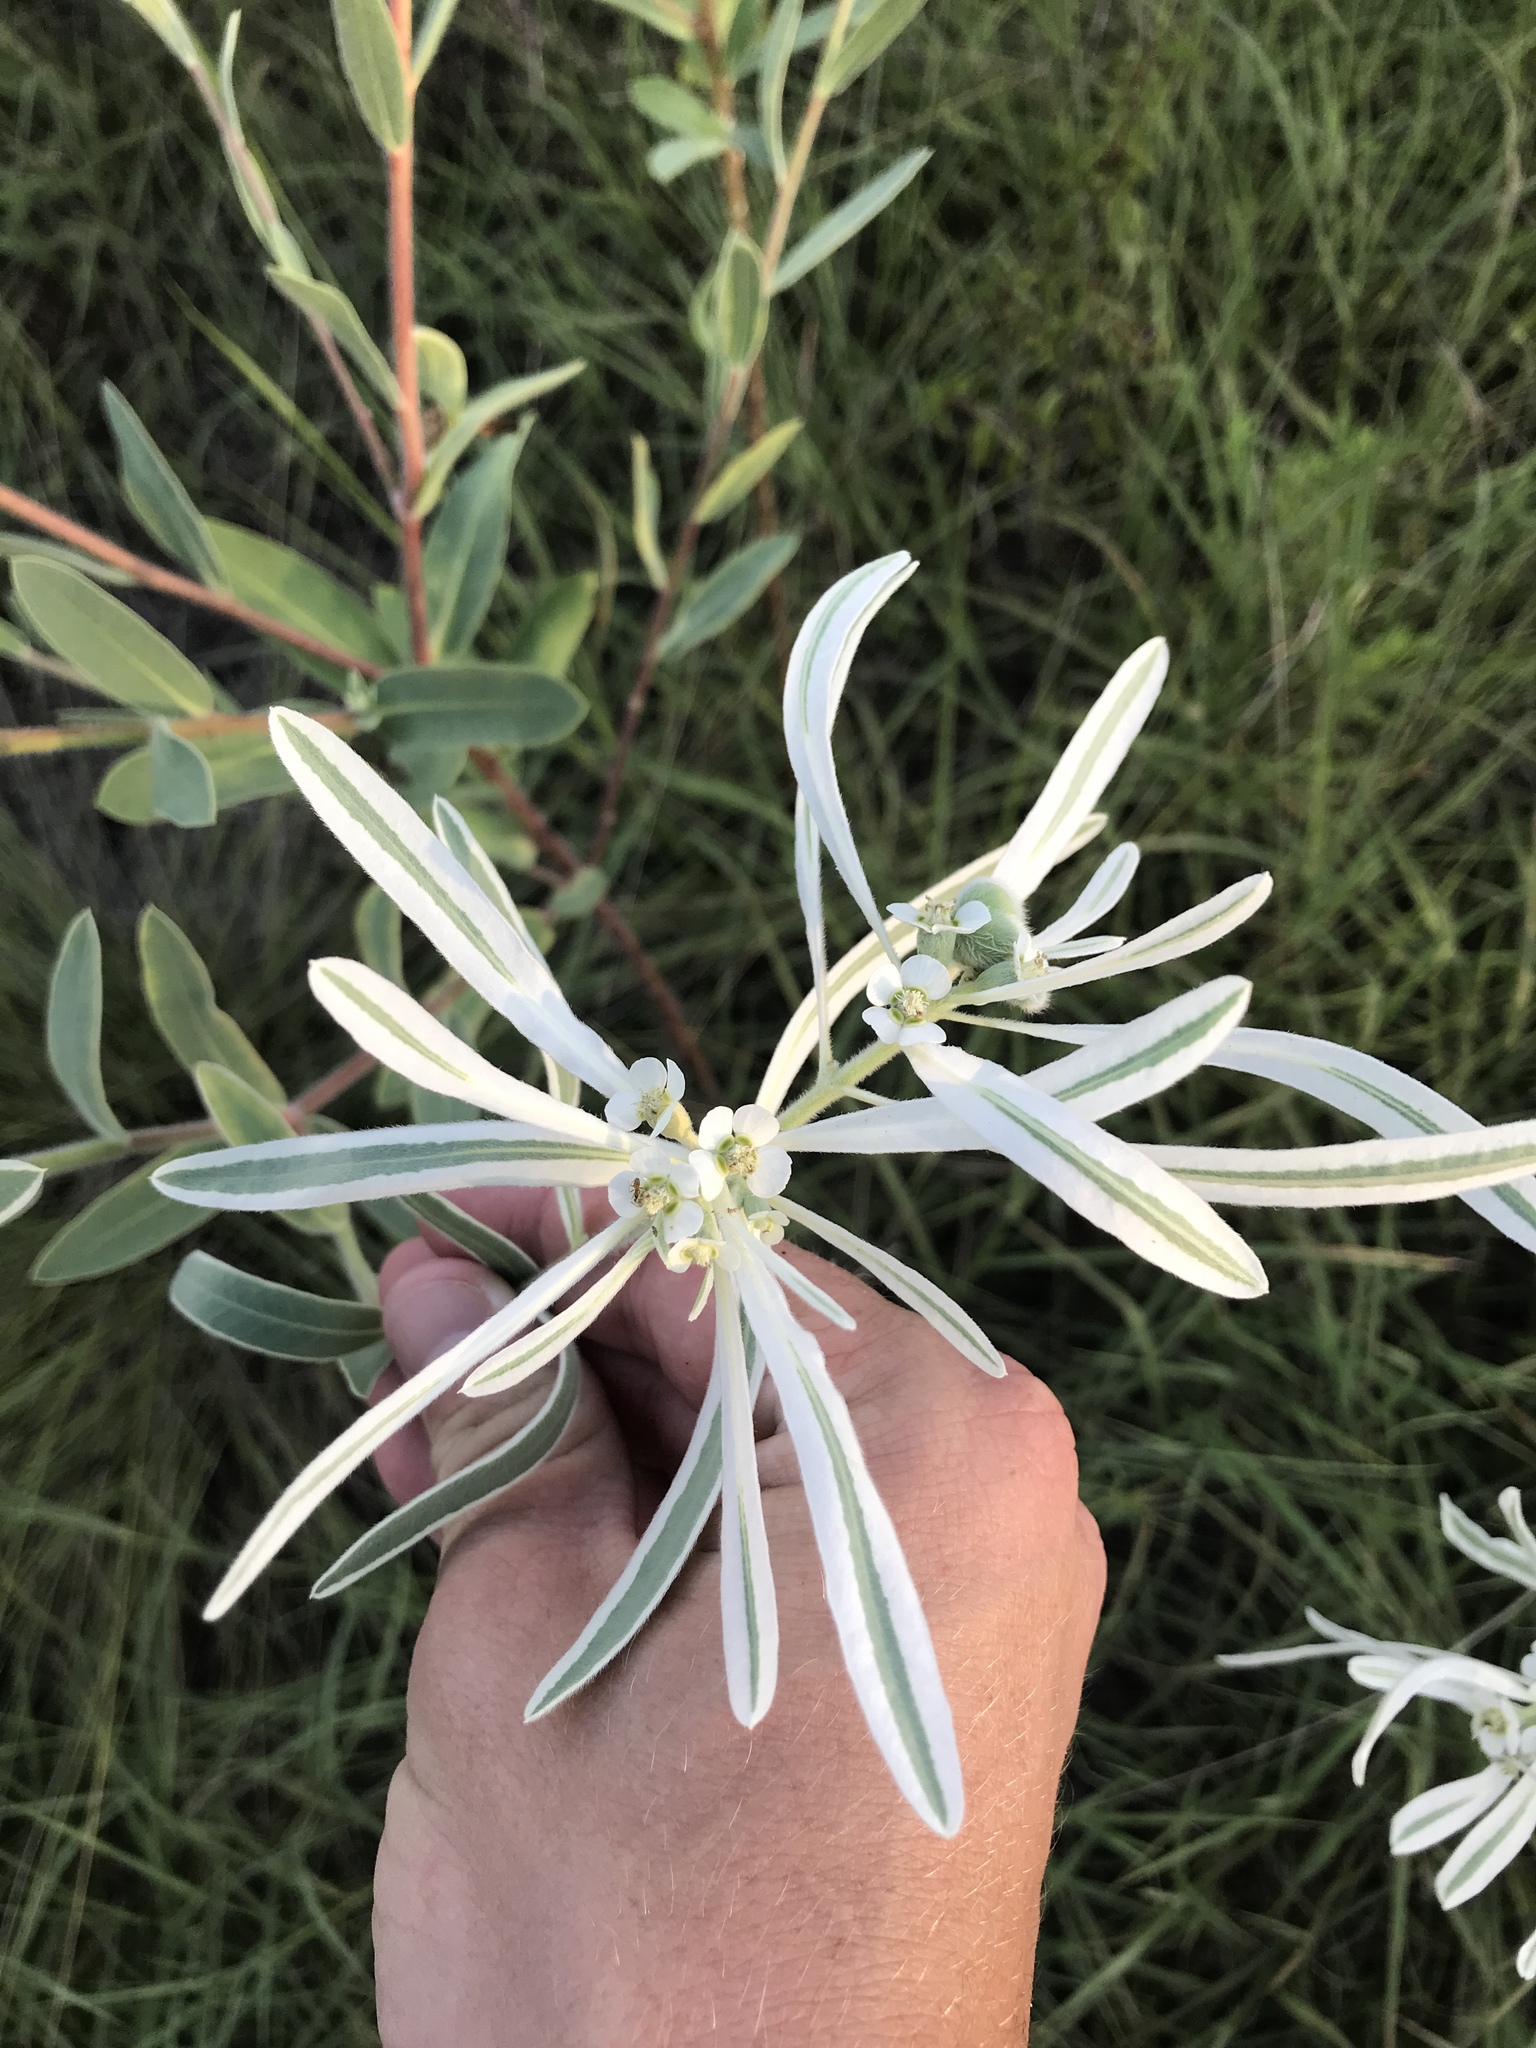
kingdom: Plantae
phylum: Tracheophyta
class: Magnoliopsida
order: Malpighiales
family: Euphorbiaceae
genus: Euphorbia
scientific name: Euphorbia bicolor
